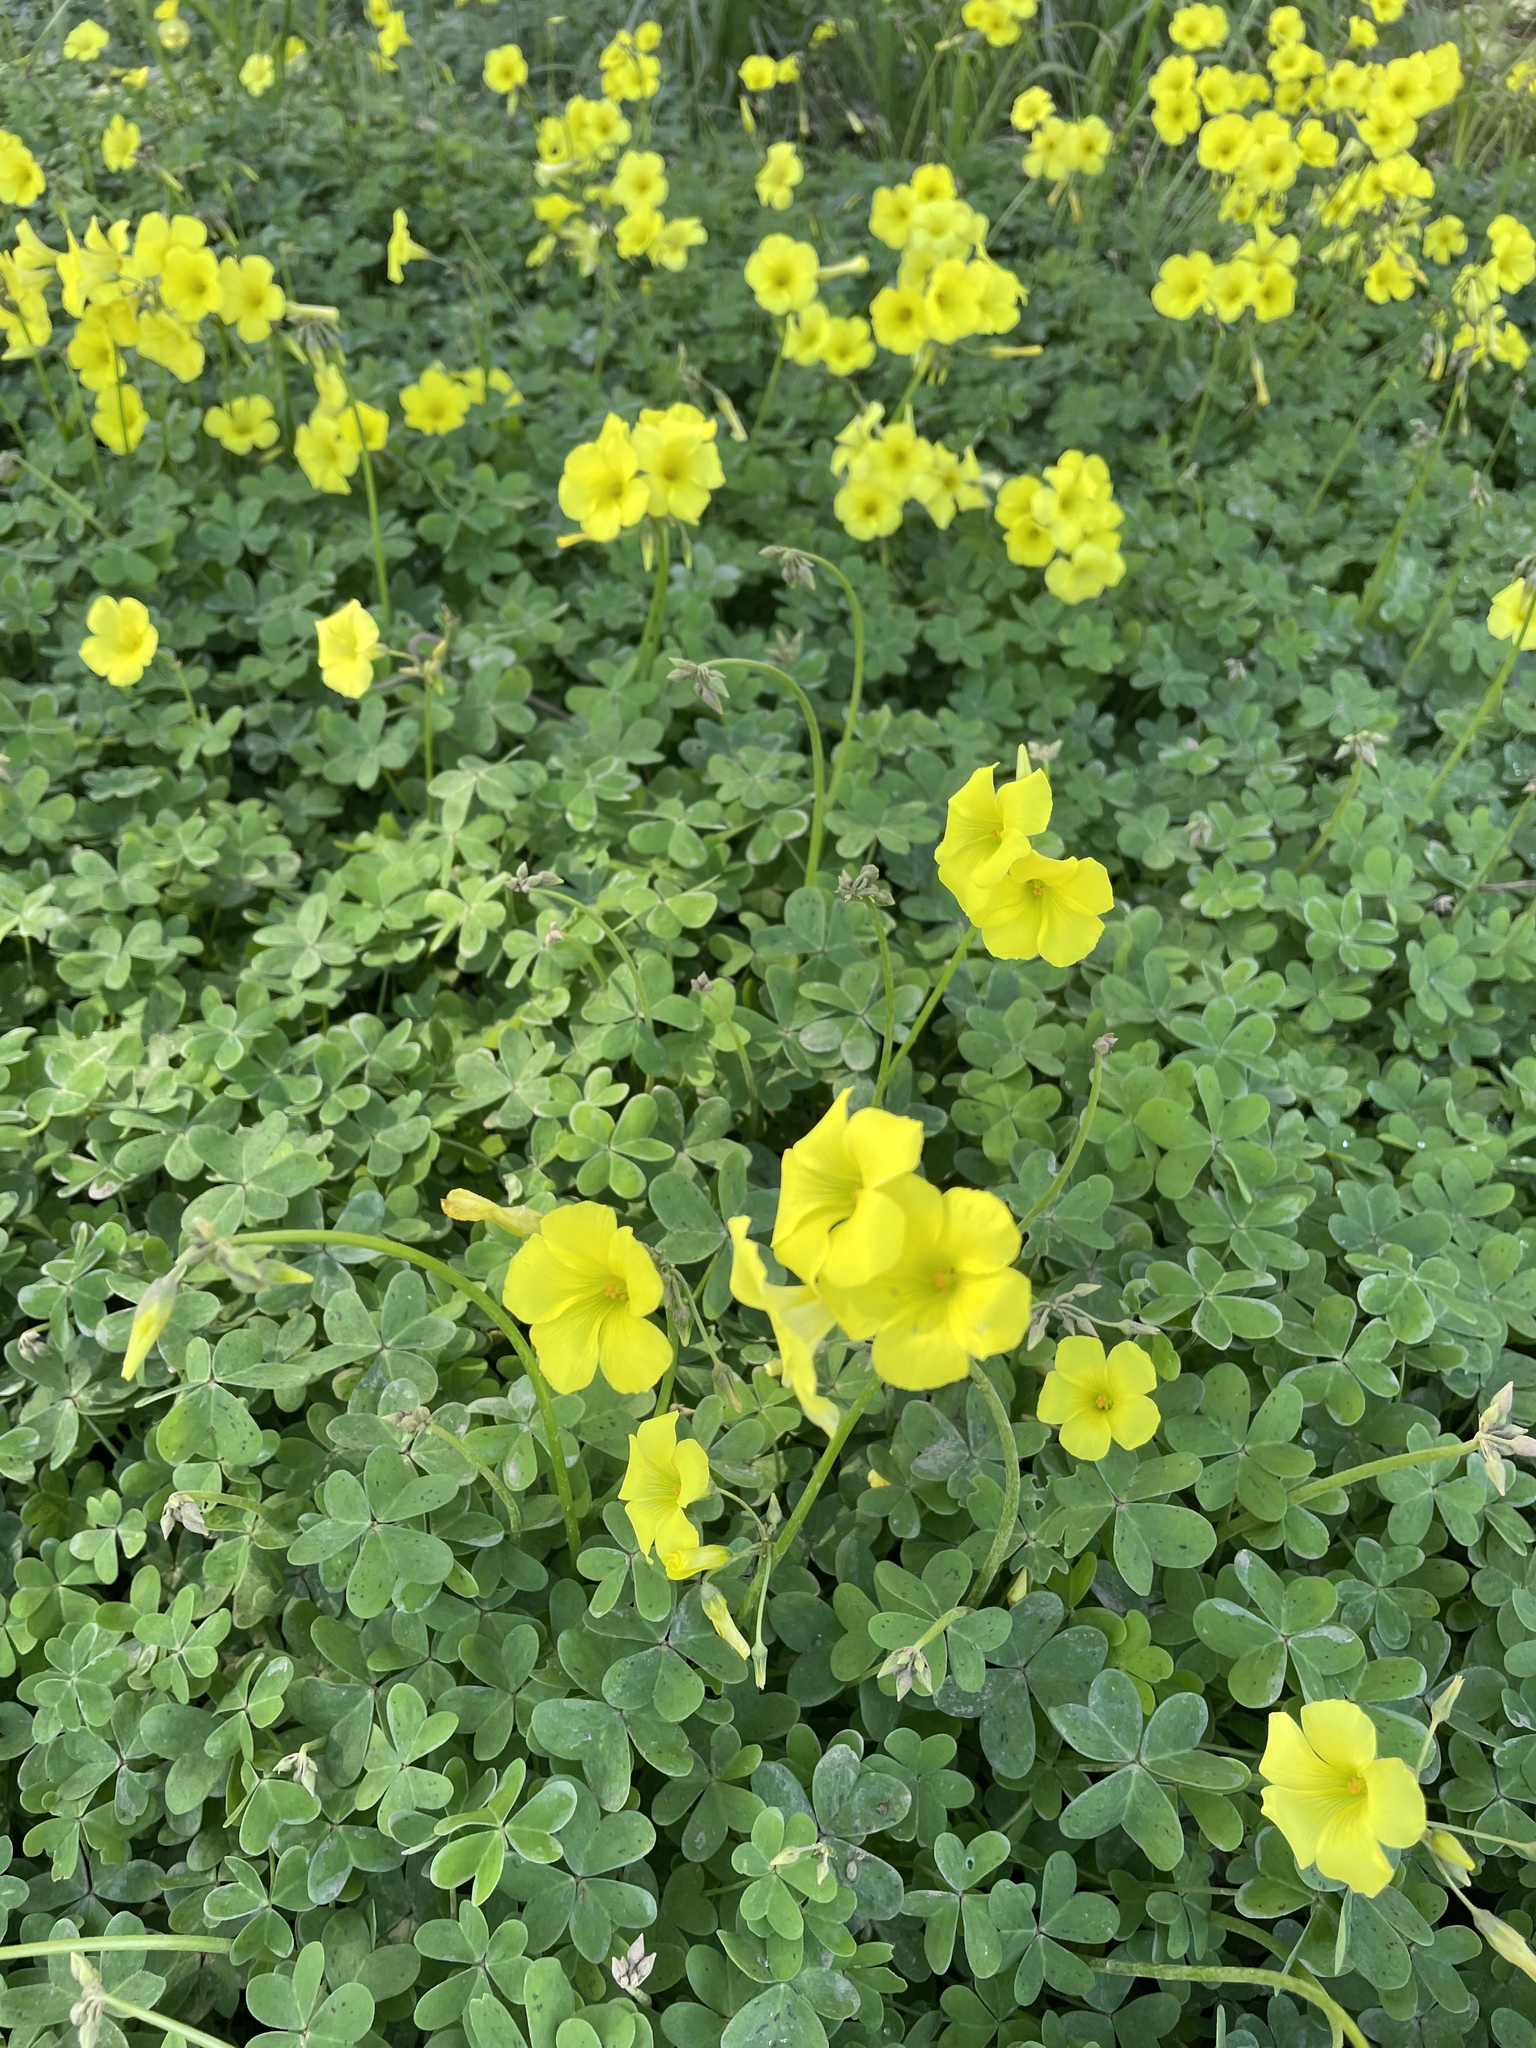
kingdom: Plantae
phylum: Tracheophyta
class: Magnoliopsida
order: Oxalidales
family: Oxalidaceae
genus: Oxalis
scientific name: Oxalis pes-caprae
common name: Bermuda-buttercup
